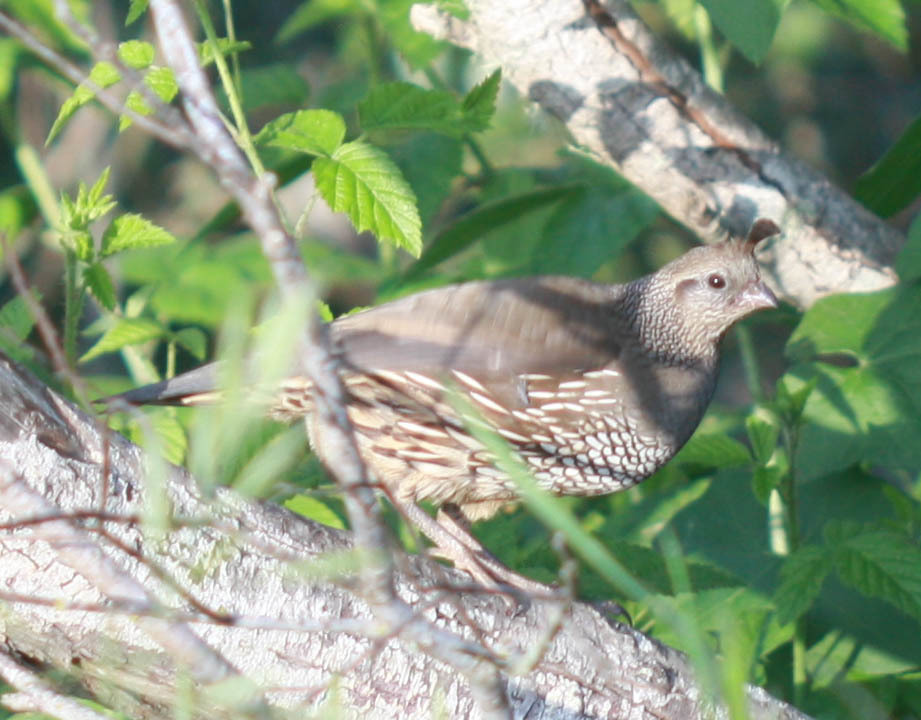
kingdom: Animalia
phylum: Chordata
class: Aves
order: Galliformes
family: Odontophoridae
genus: Callipepla
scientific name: Callipepla californica
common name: California quail
